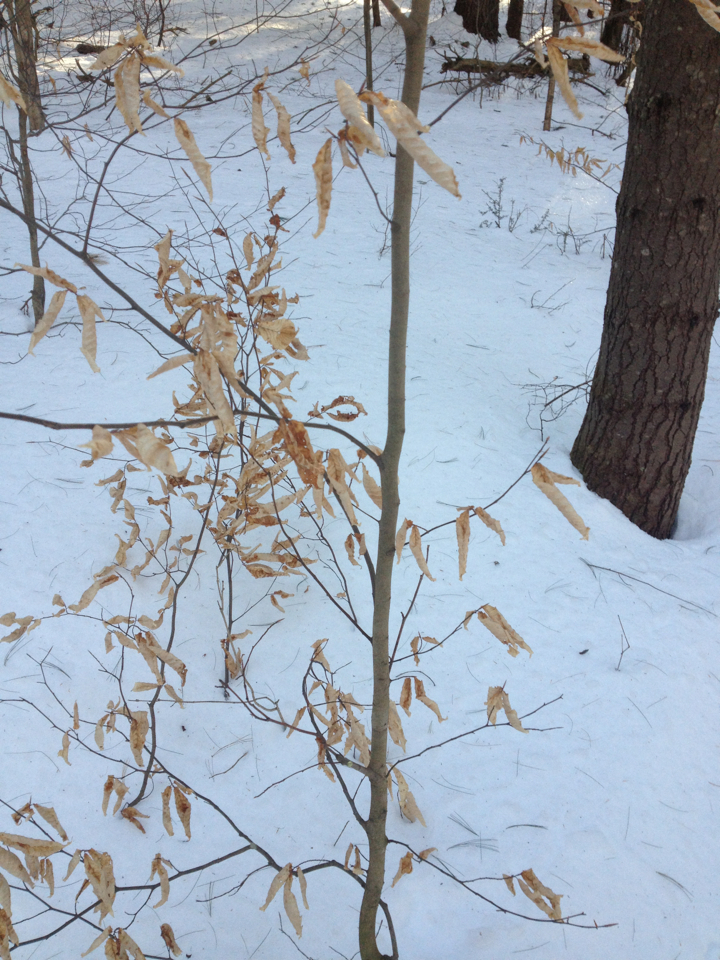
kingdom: Plantae
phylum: Tracheophyta
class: Magnoliopsida
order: Fagales
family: Fagaceae
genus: Fagus
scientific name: Fagus grandifolia
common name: American beech
